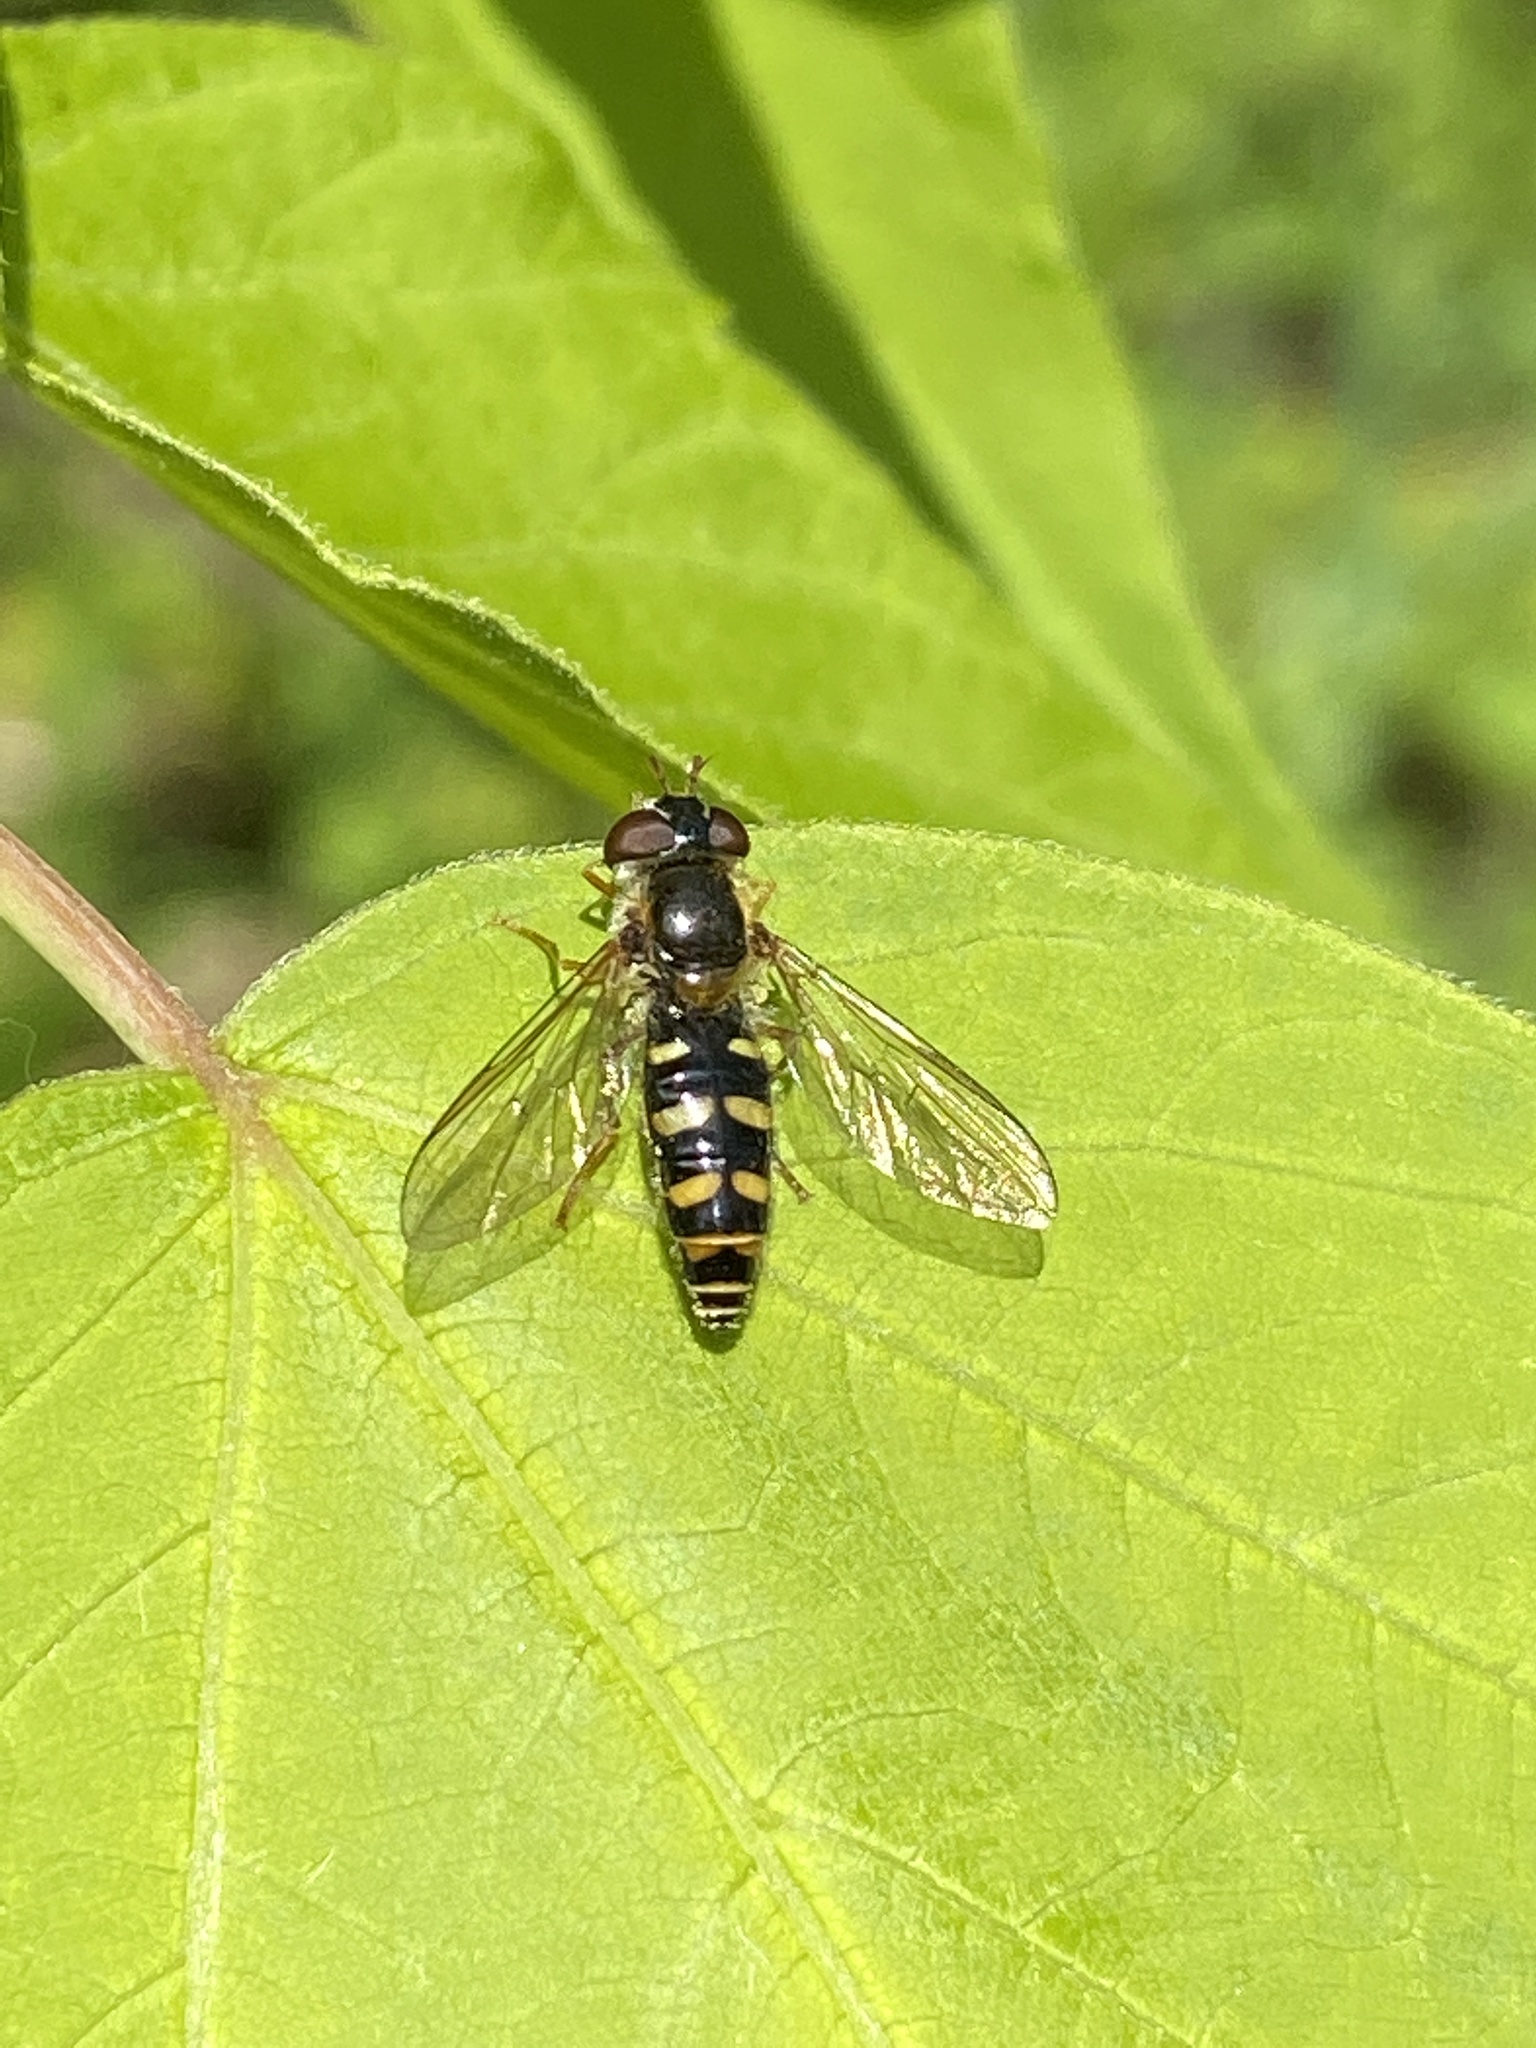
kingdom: Animalia
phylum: Arthropoda
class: Insecta
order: Diptera
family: Syrphidae
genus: Epistrophella
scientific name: Epistrophella euchromus
